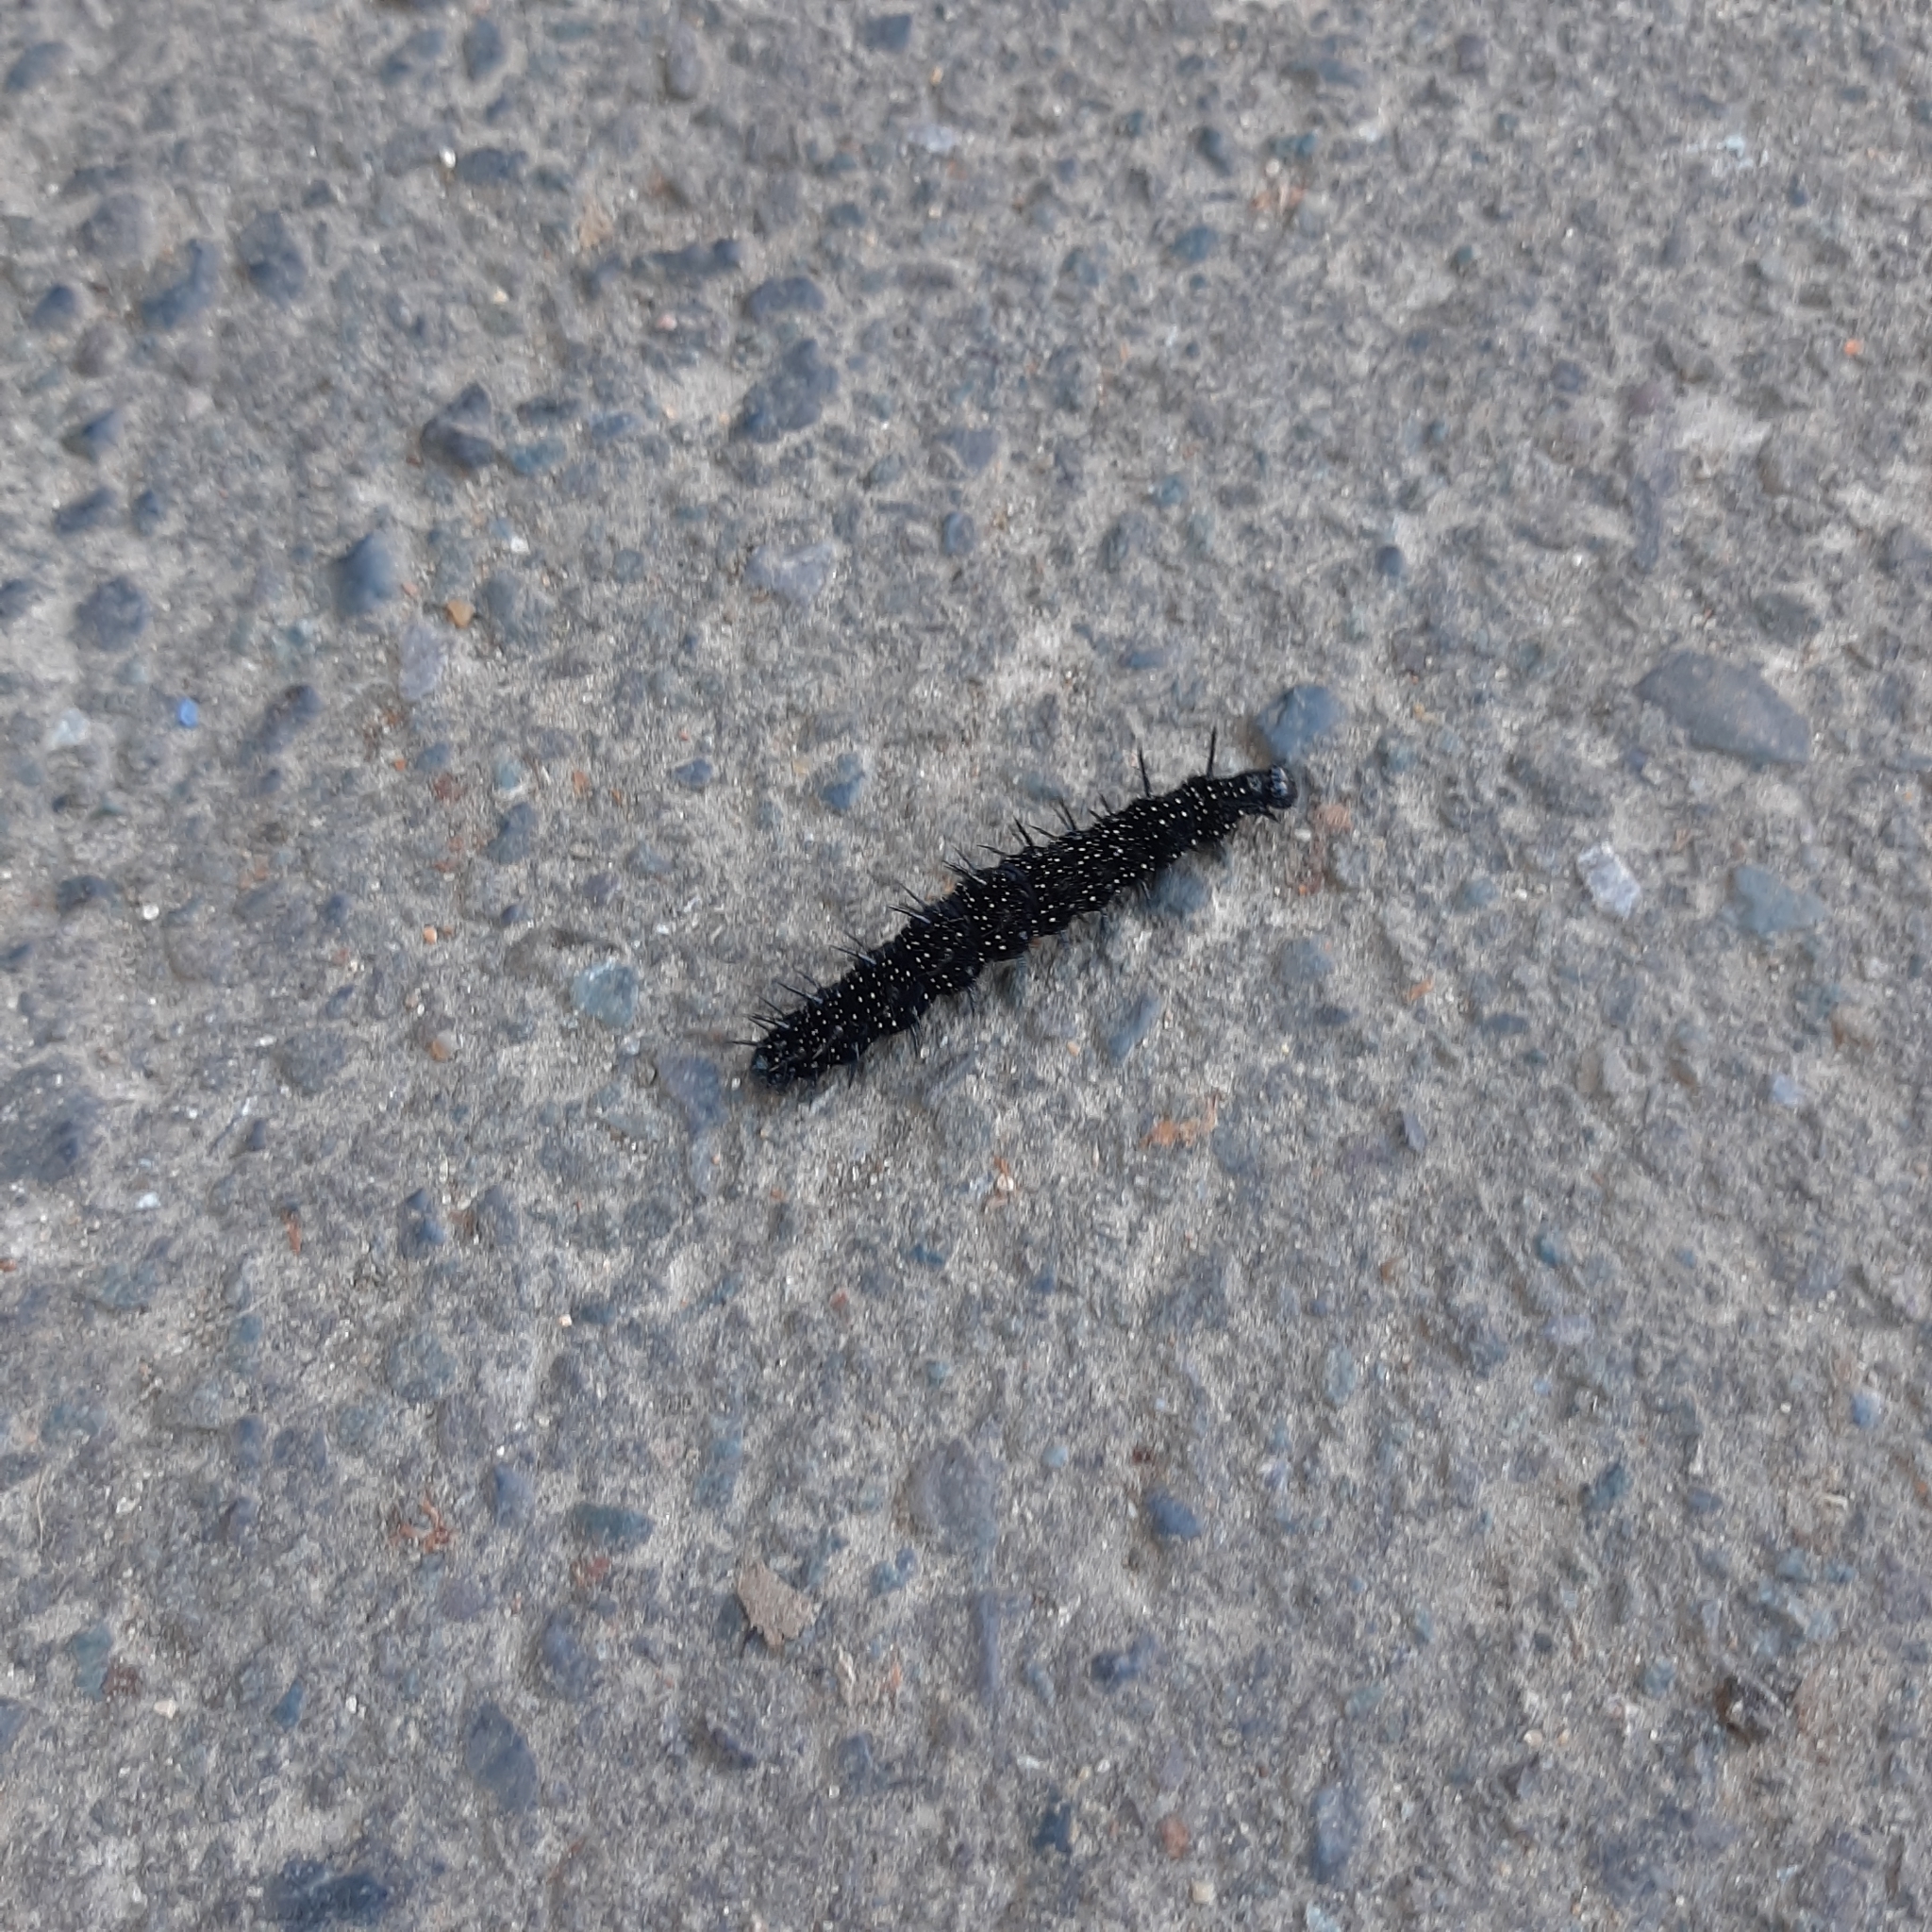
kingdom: Animalia
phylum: Arthropoda
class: Insecta
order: Lepidoptera
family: Nymphalidae
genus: Aglais
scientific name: Aglais io
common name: Peacock
